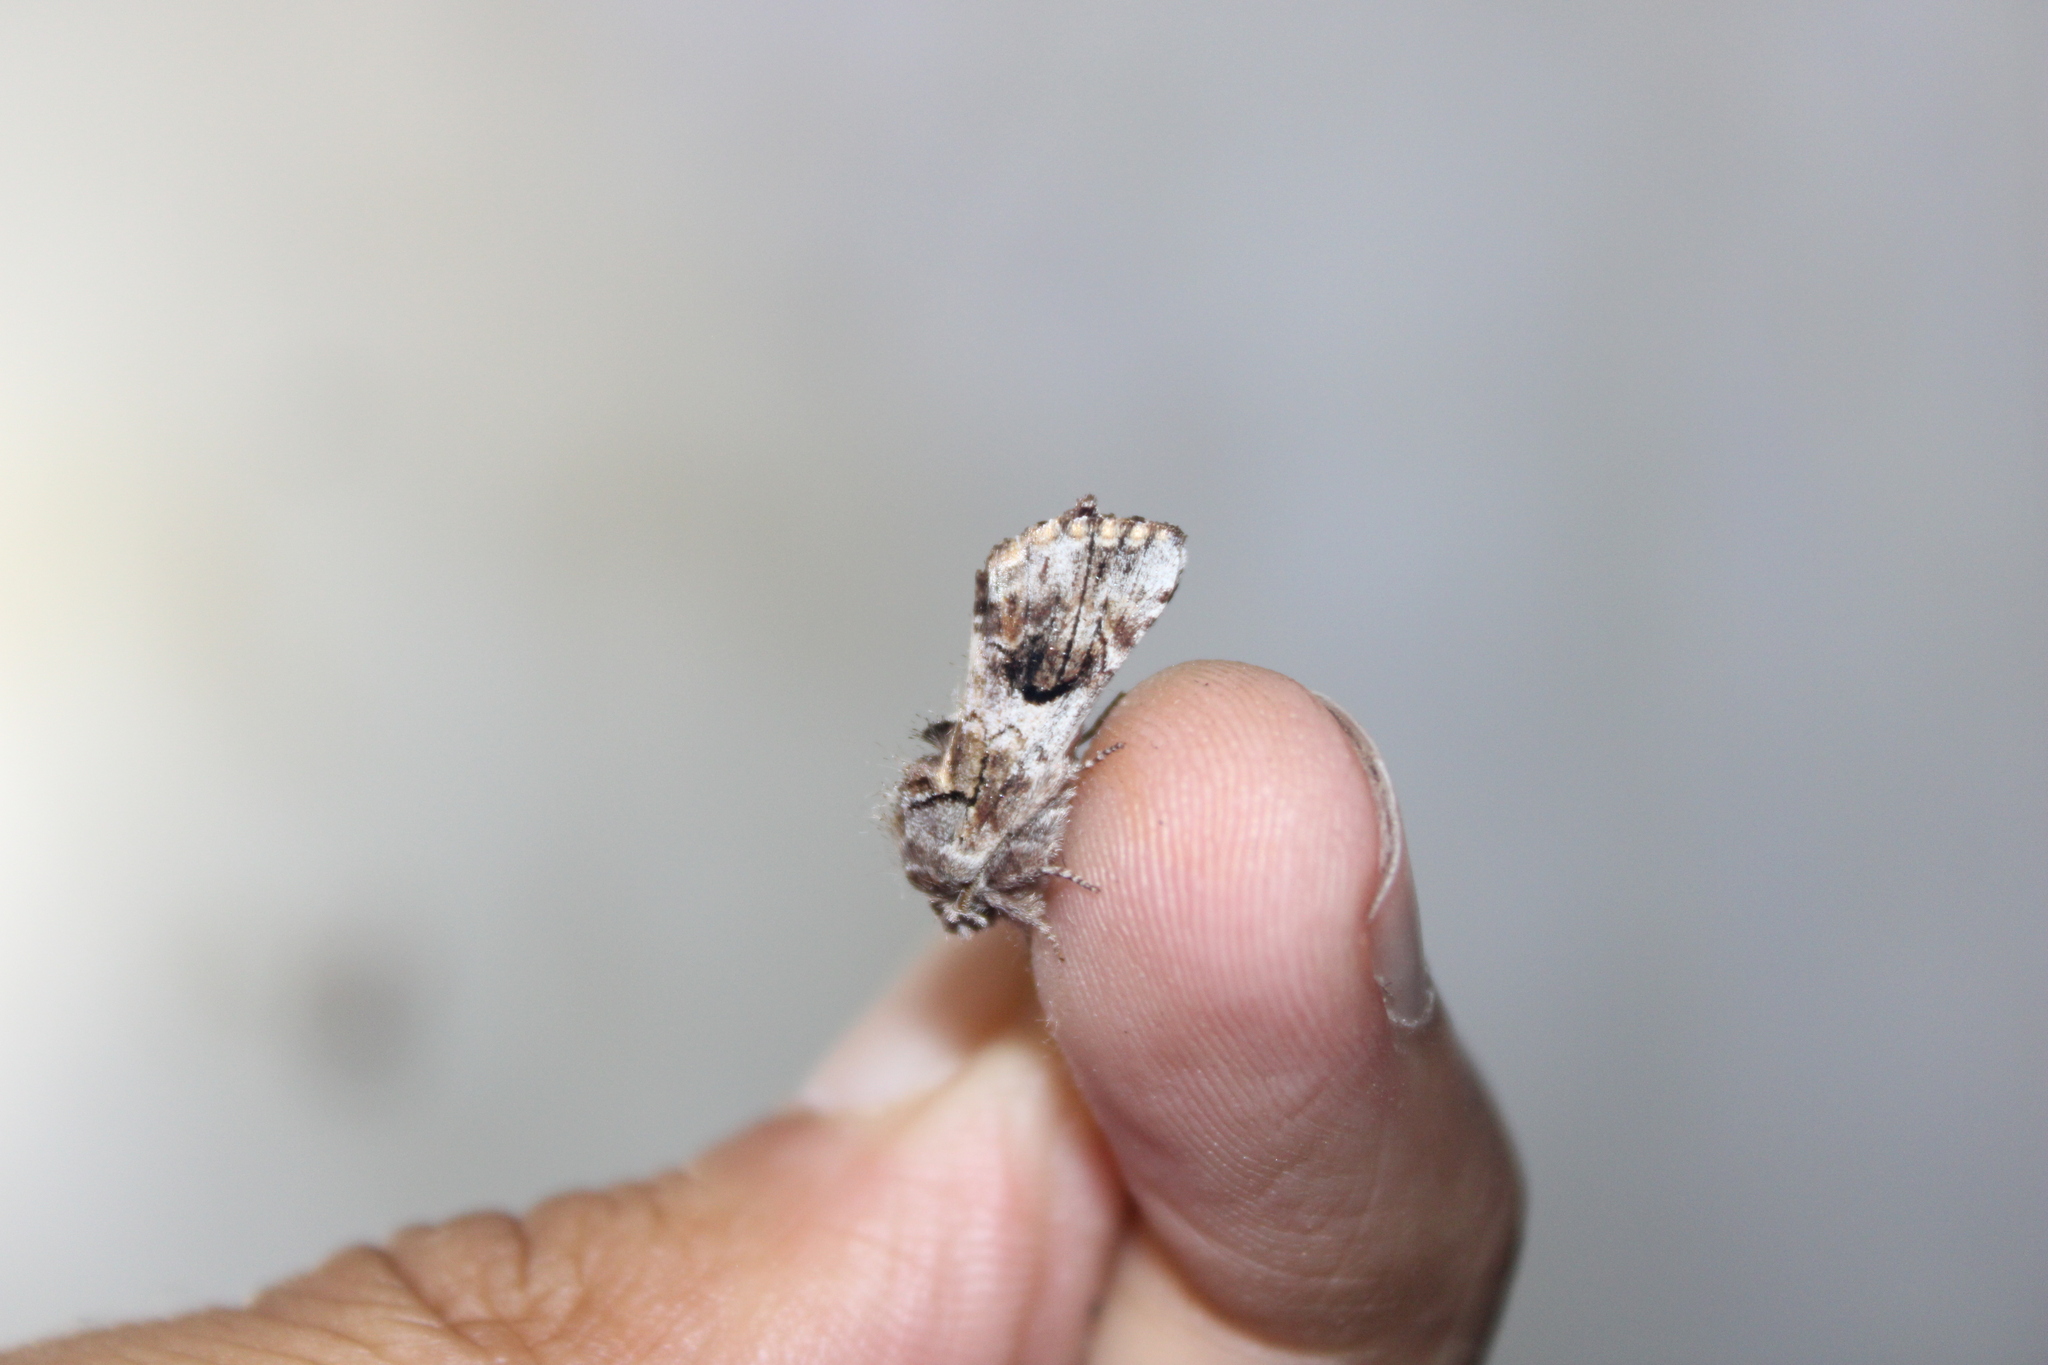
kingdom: Animalia
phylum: Arthropoda
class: Insecta
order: Lepidoptera
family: Notodontidae
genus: Schizura
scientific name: Schizura
